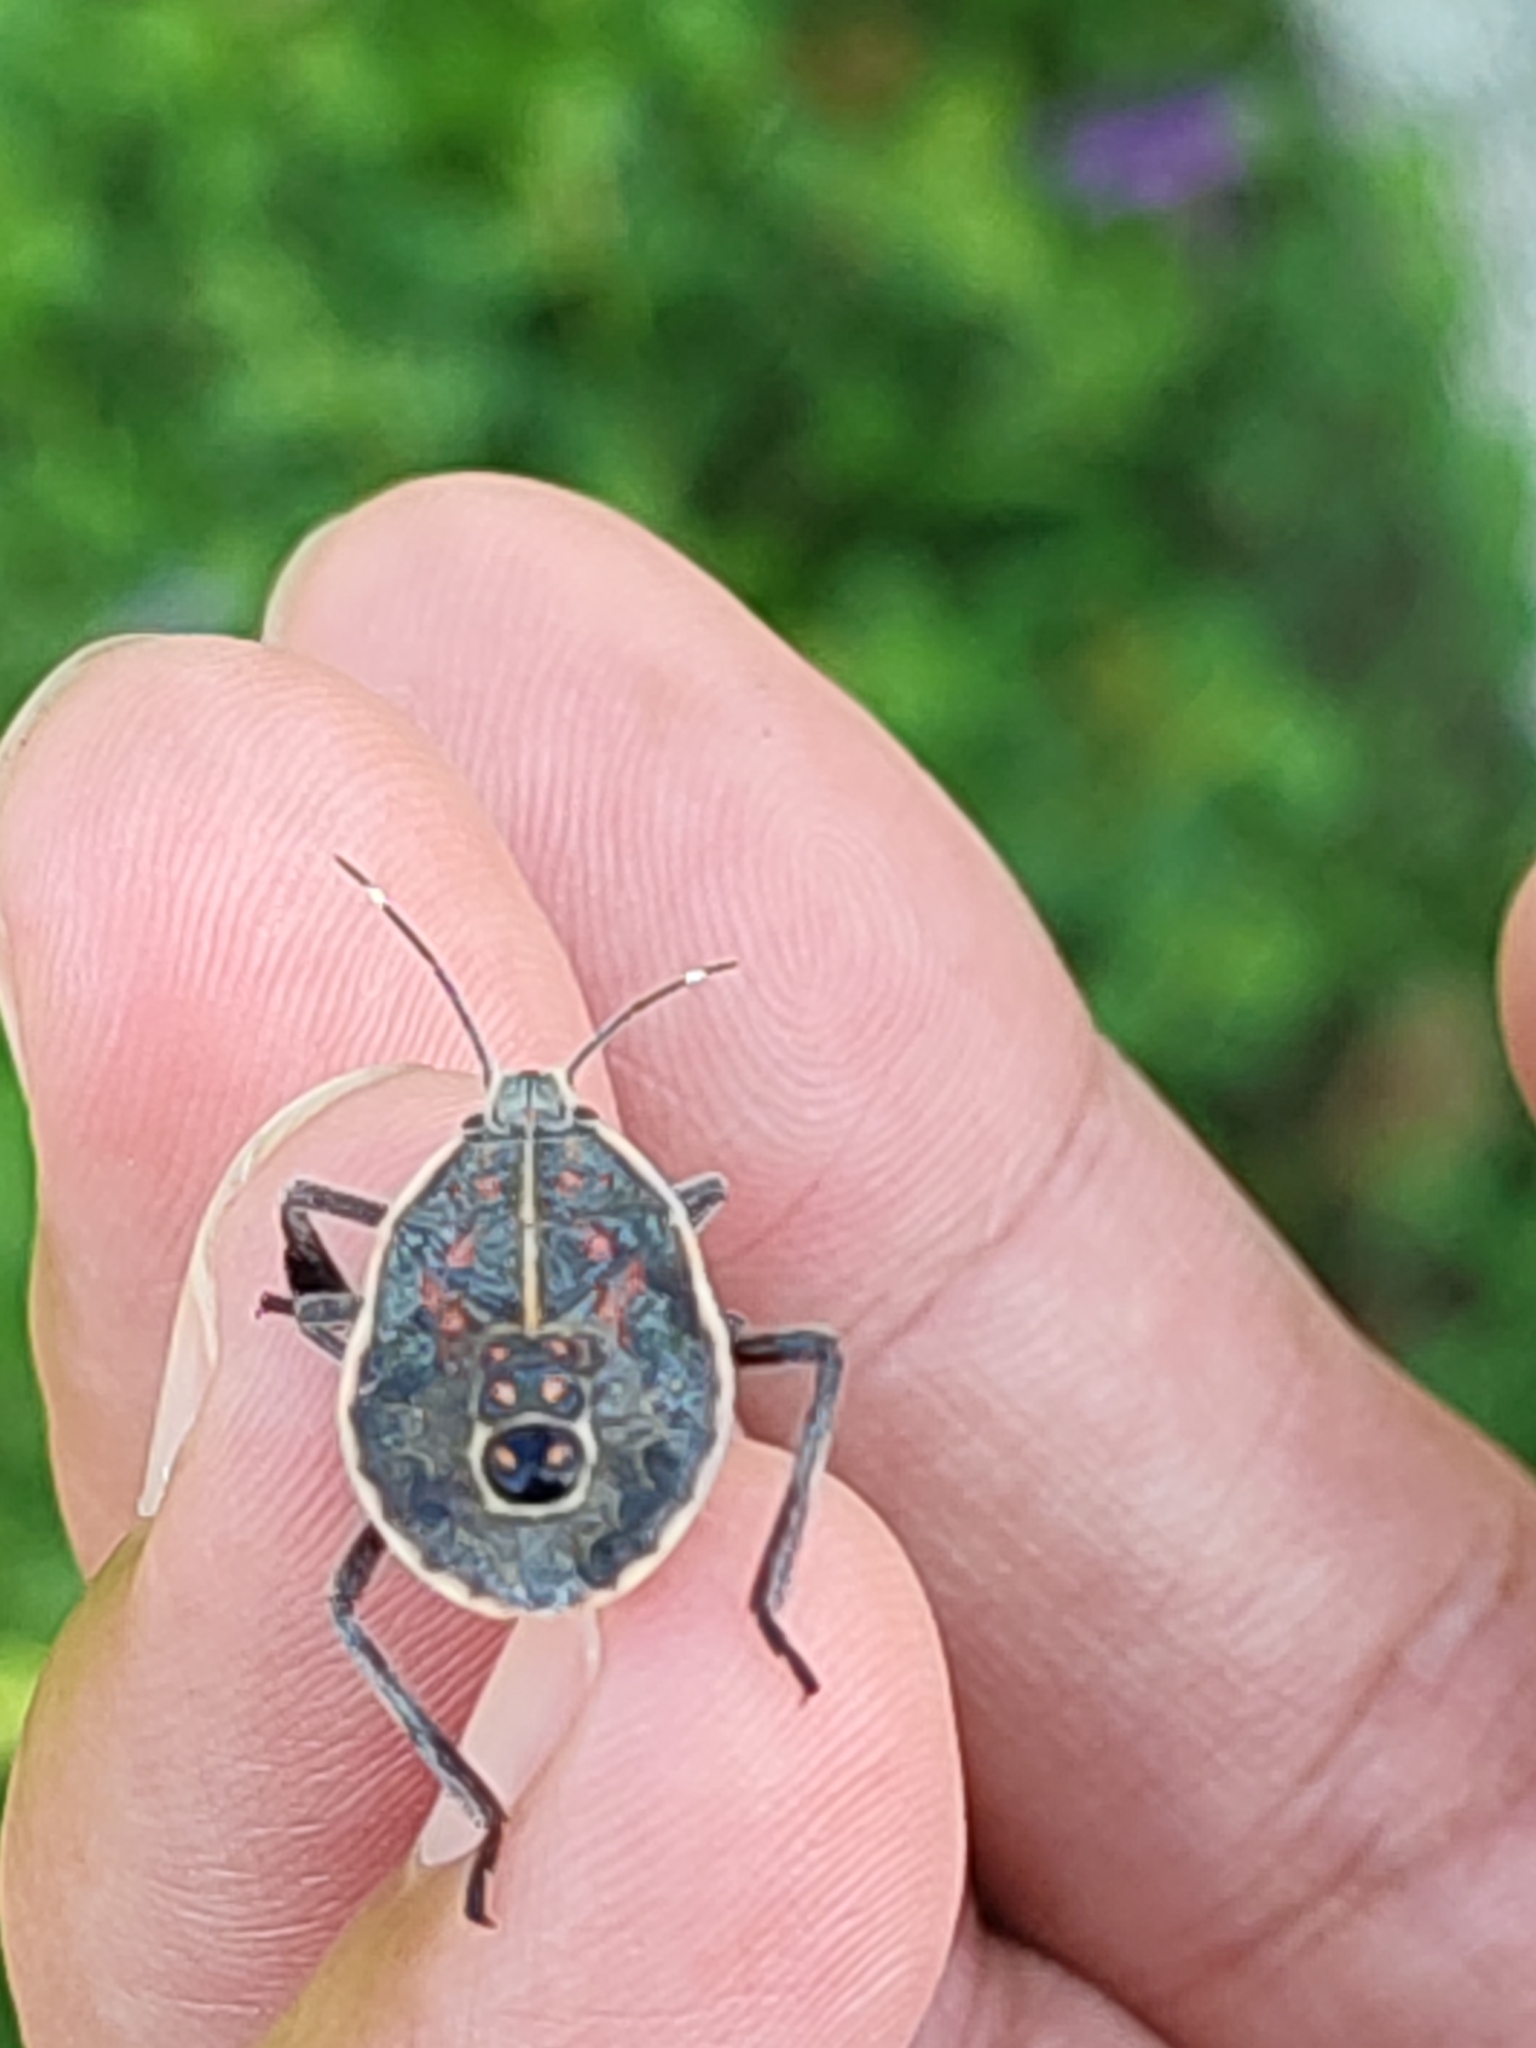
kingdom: Animalia
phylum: Arthropoda
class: Insecta
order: Hemiptera
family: Pentatomidae
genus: Erthesina
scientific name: Erthesina fullo
